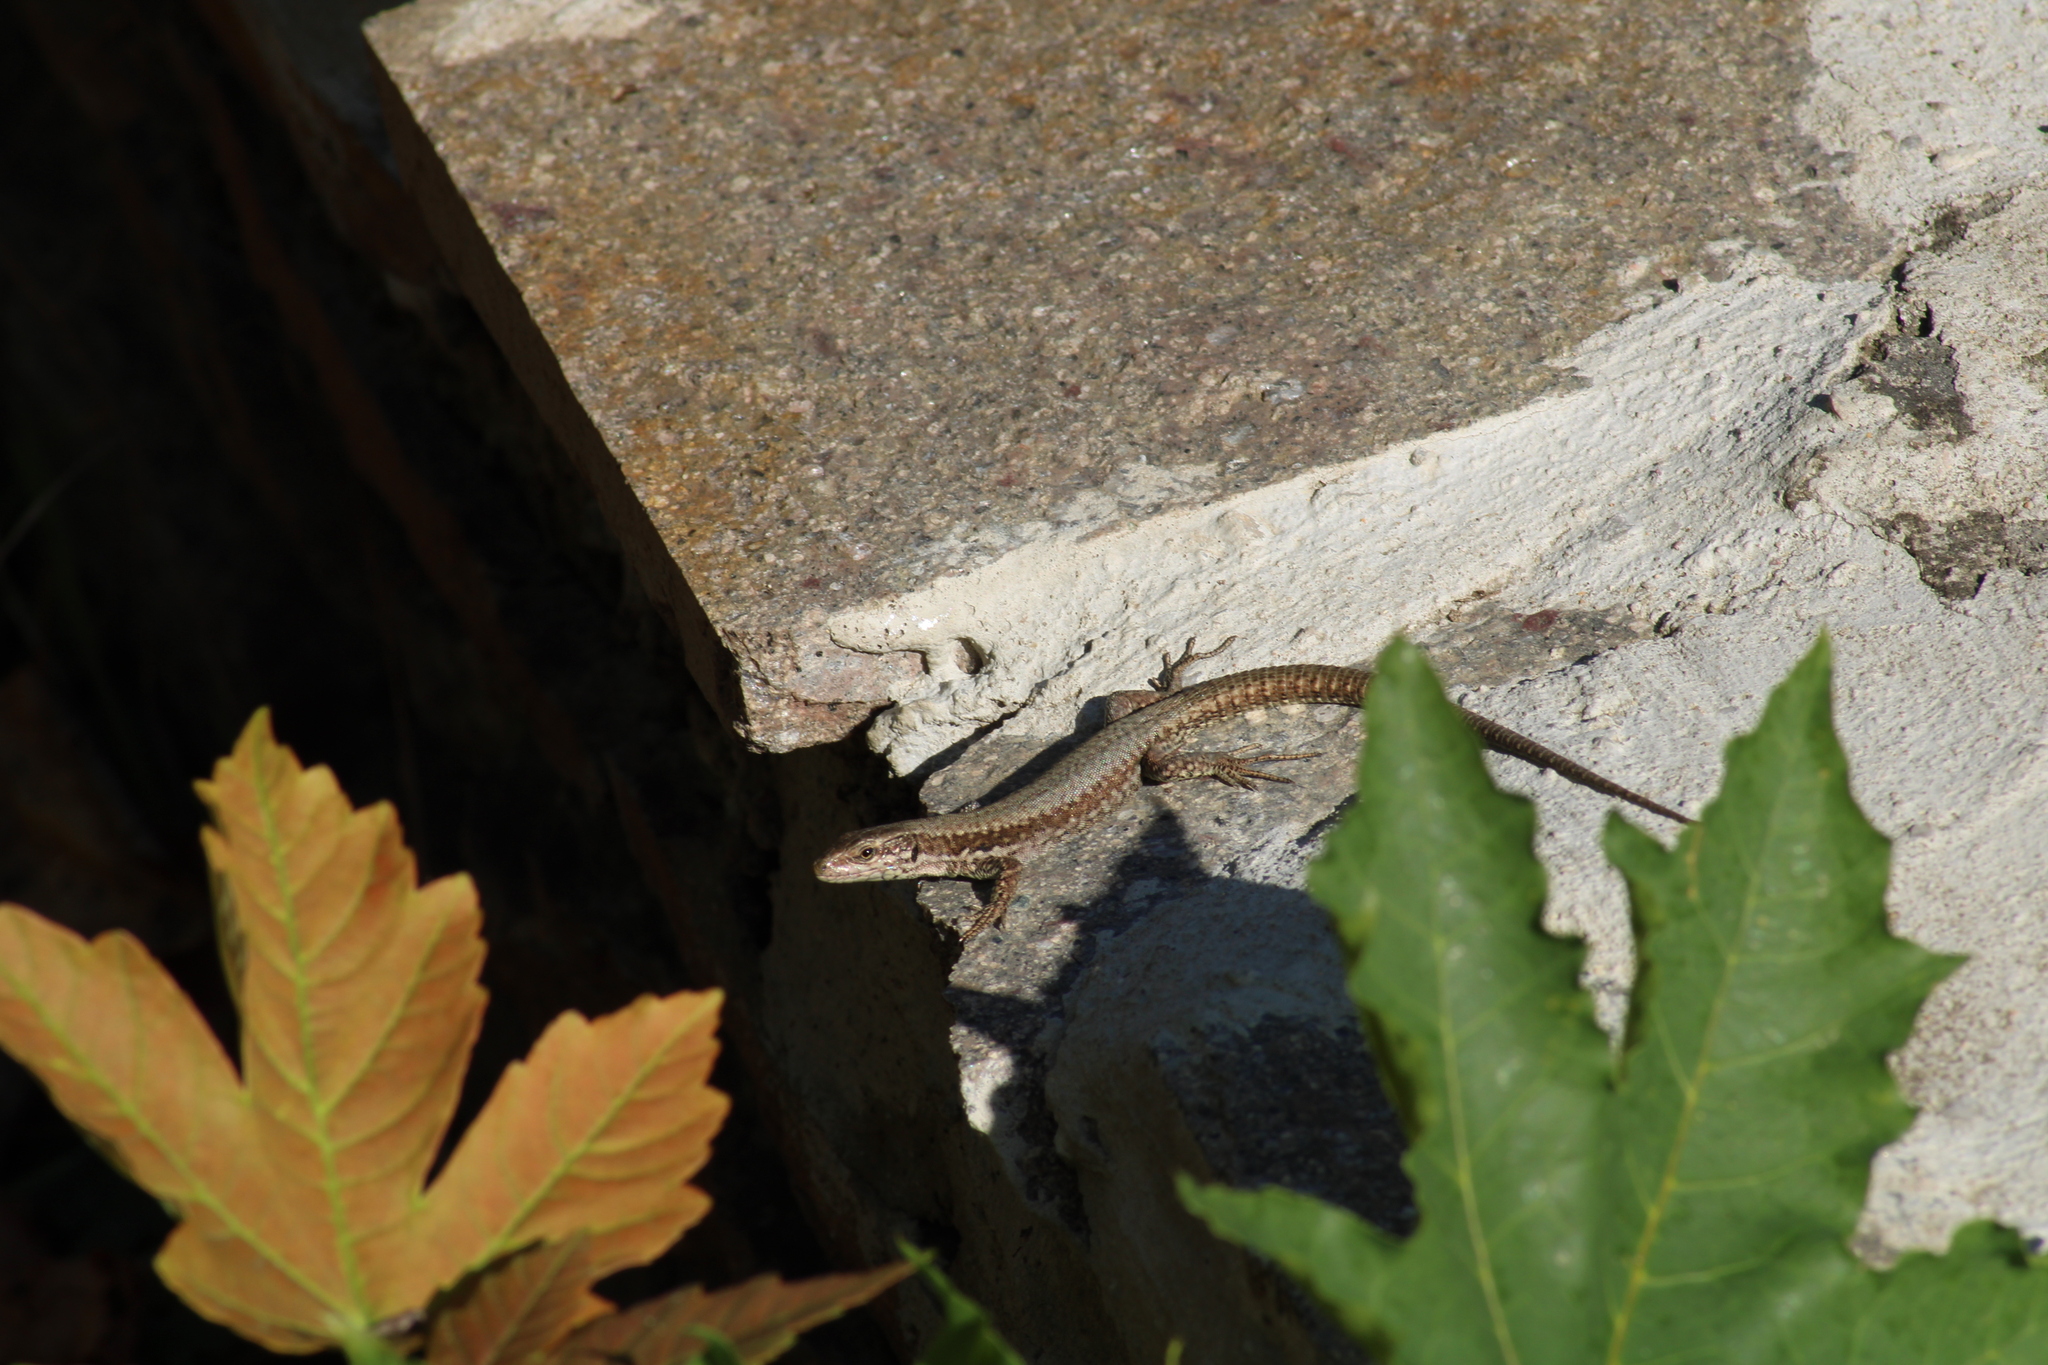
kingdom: Animalia
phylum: Chordata
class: Squamata
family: Lacertidae
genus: Podarcis
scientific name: Podarcis muralis
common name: Common wall lizard
